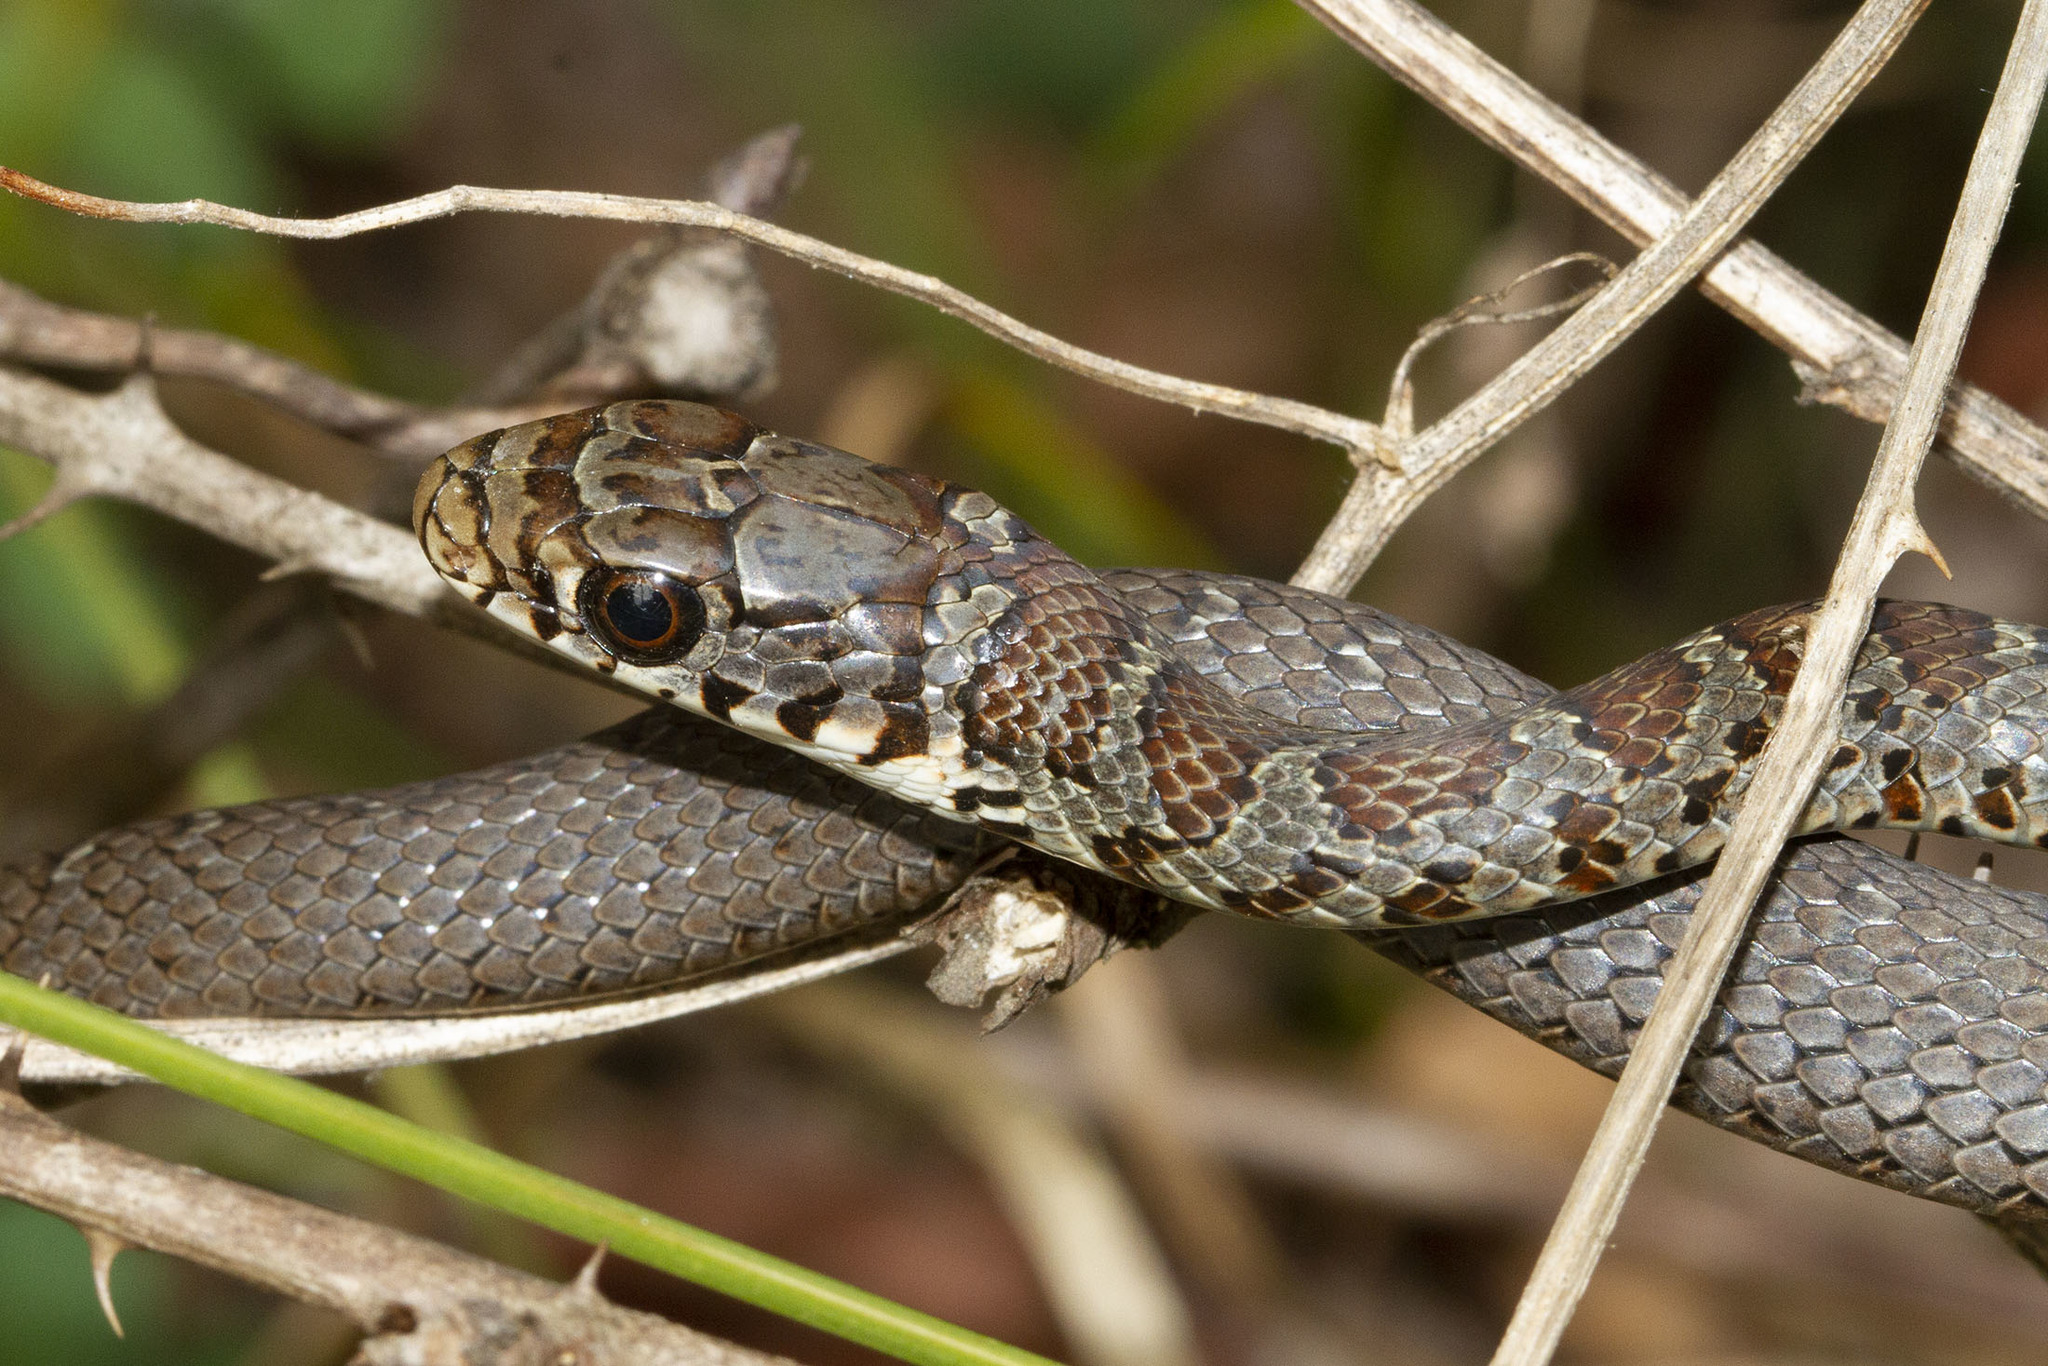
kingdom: Animalia
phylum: Chordata
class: Squamata
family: Colubridae
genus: Coluber
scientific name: Coluber constrictor
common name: Eastern racer
